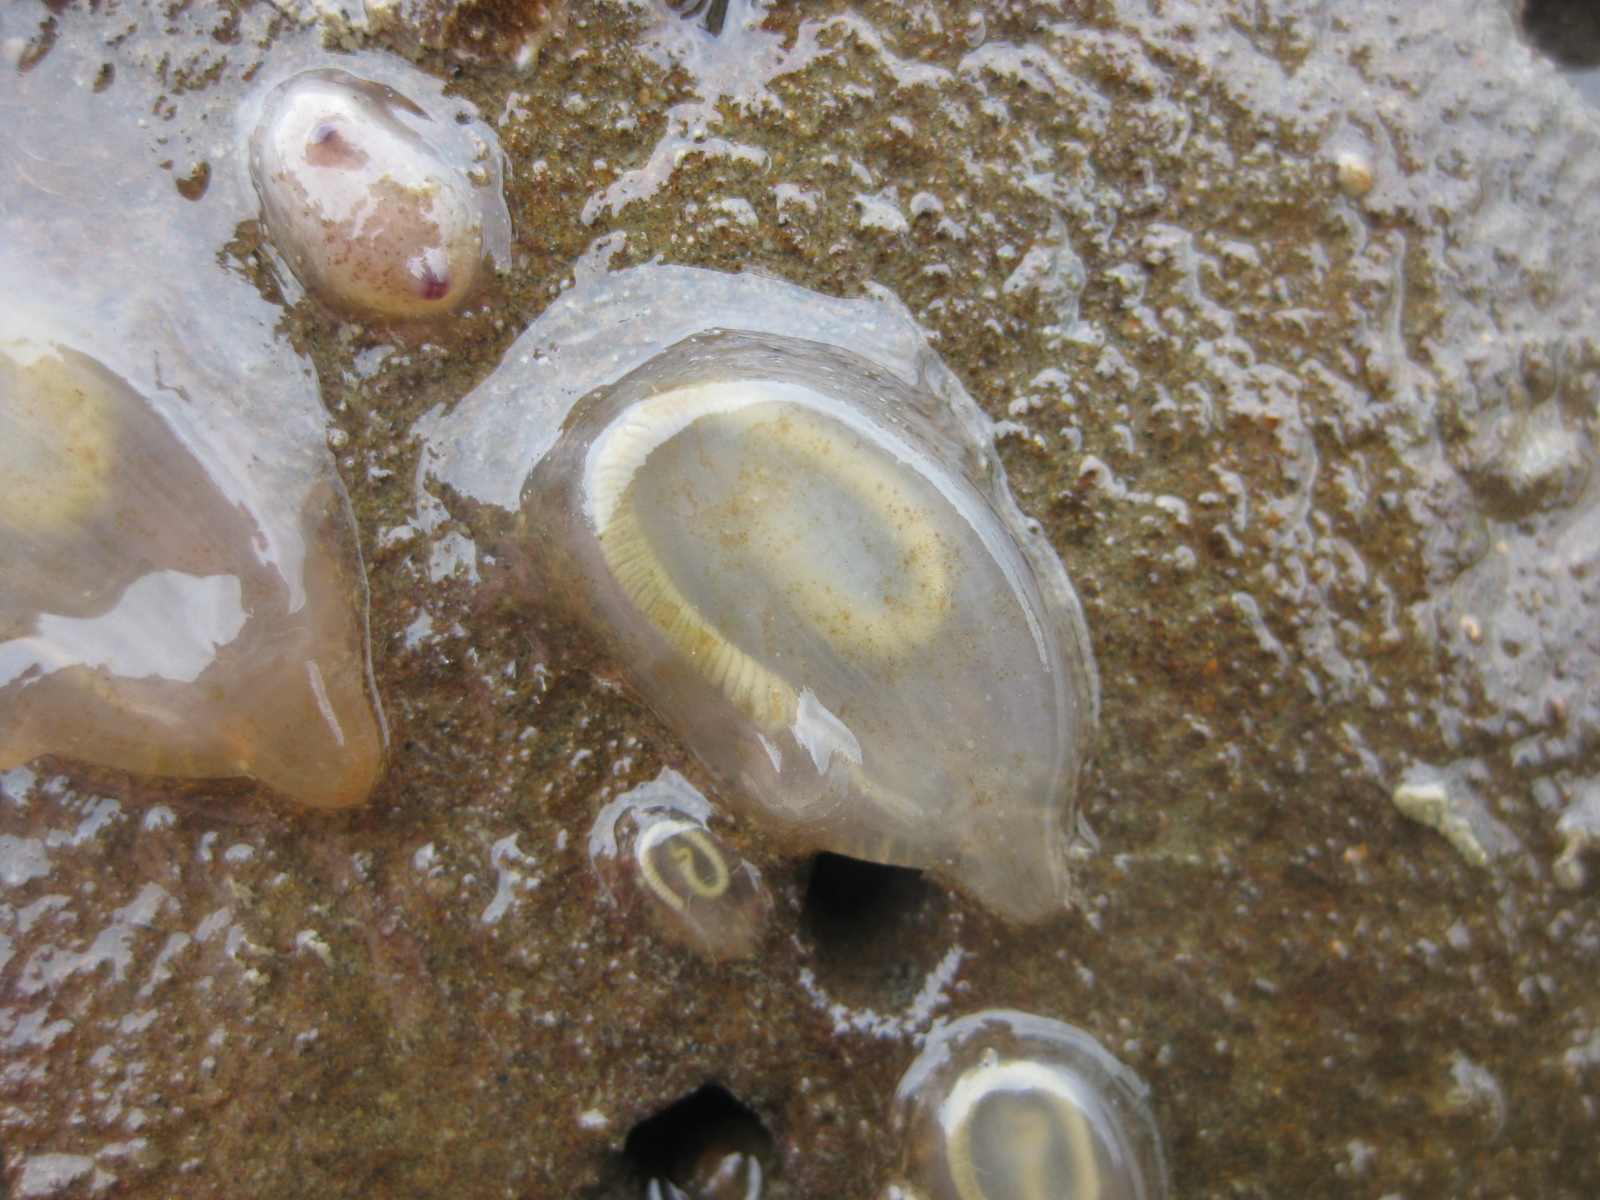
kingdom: Animalia
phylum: Chordata
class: Ascidiacea
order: Phlebobranchia
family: Agneziidae
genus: Agnezia
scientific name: Agnezia glaciata
